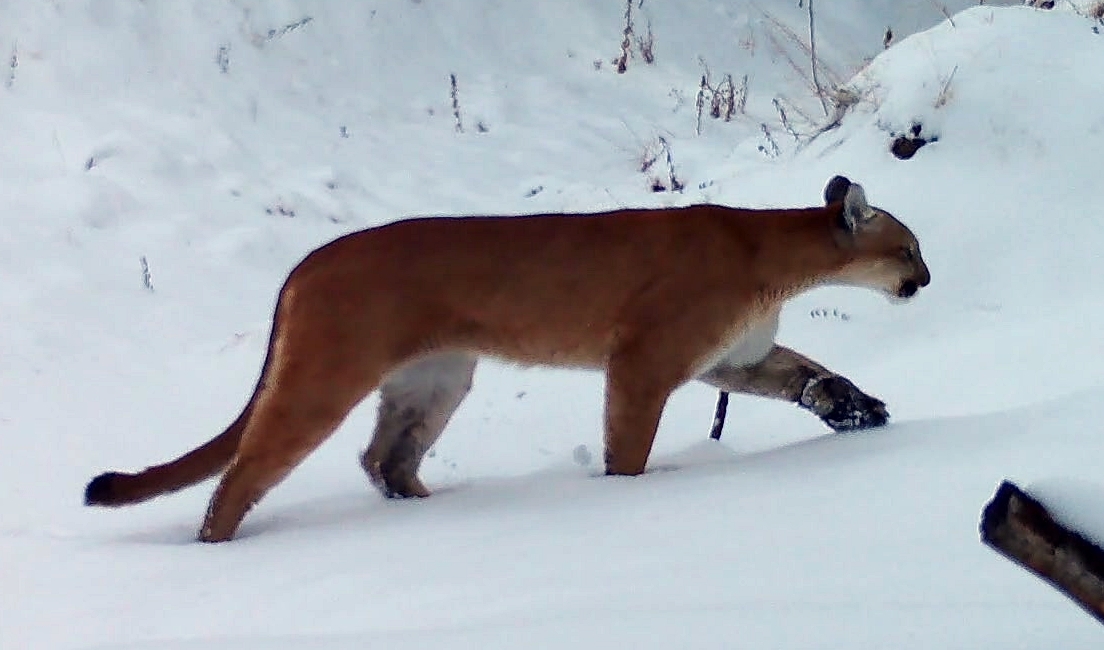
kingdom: Animalia
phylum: Chordata
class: Mammalia
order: Carnivora
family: Felidae
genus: Puma
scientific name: Puma concolor
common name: Puma
